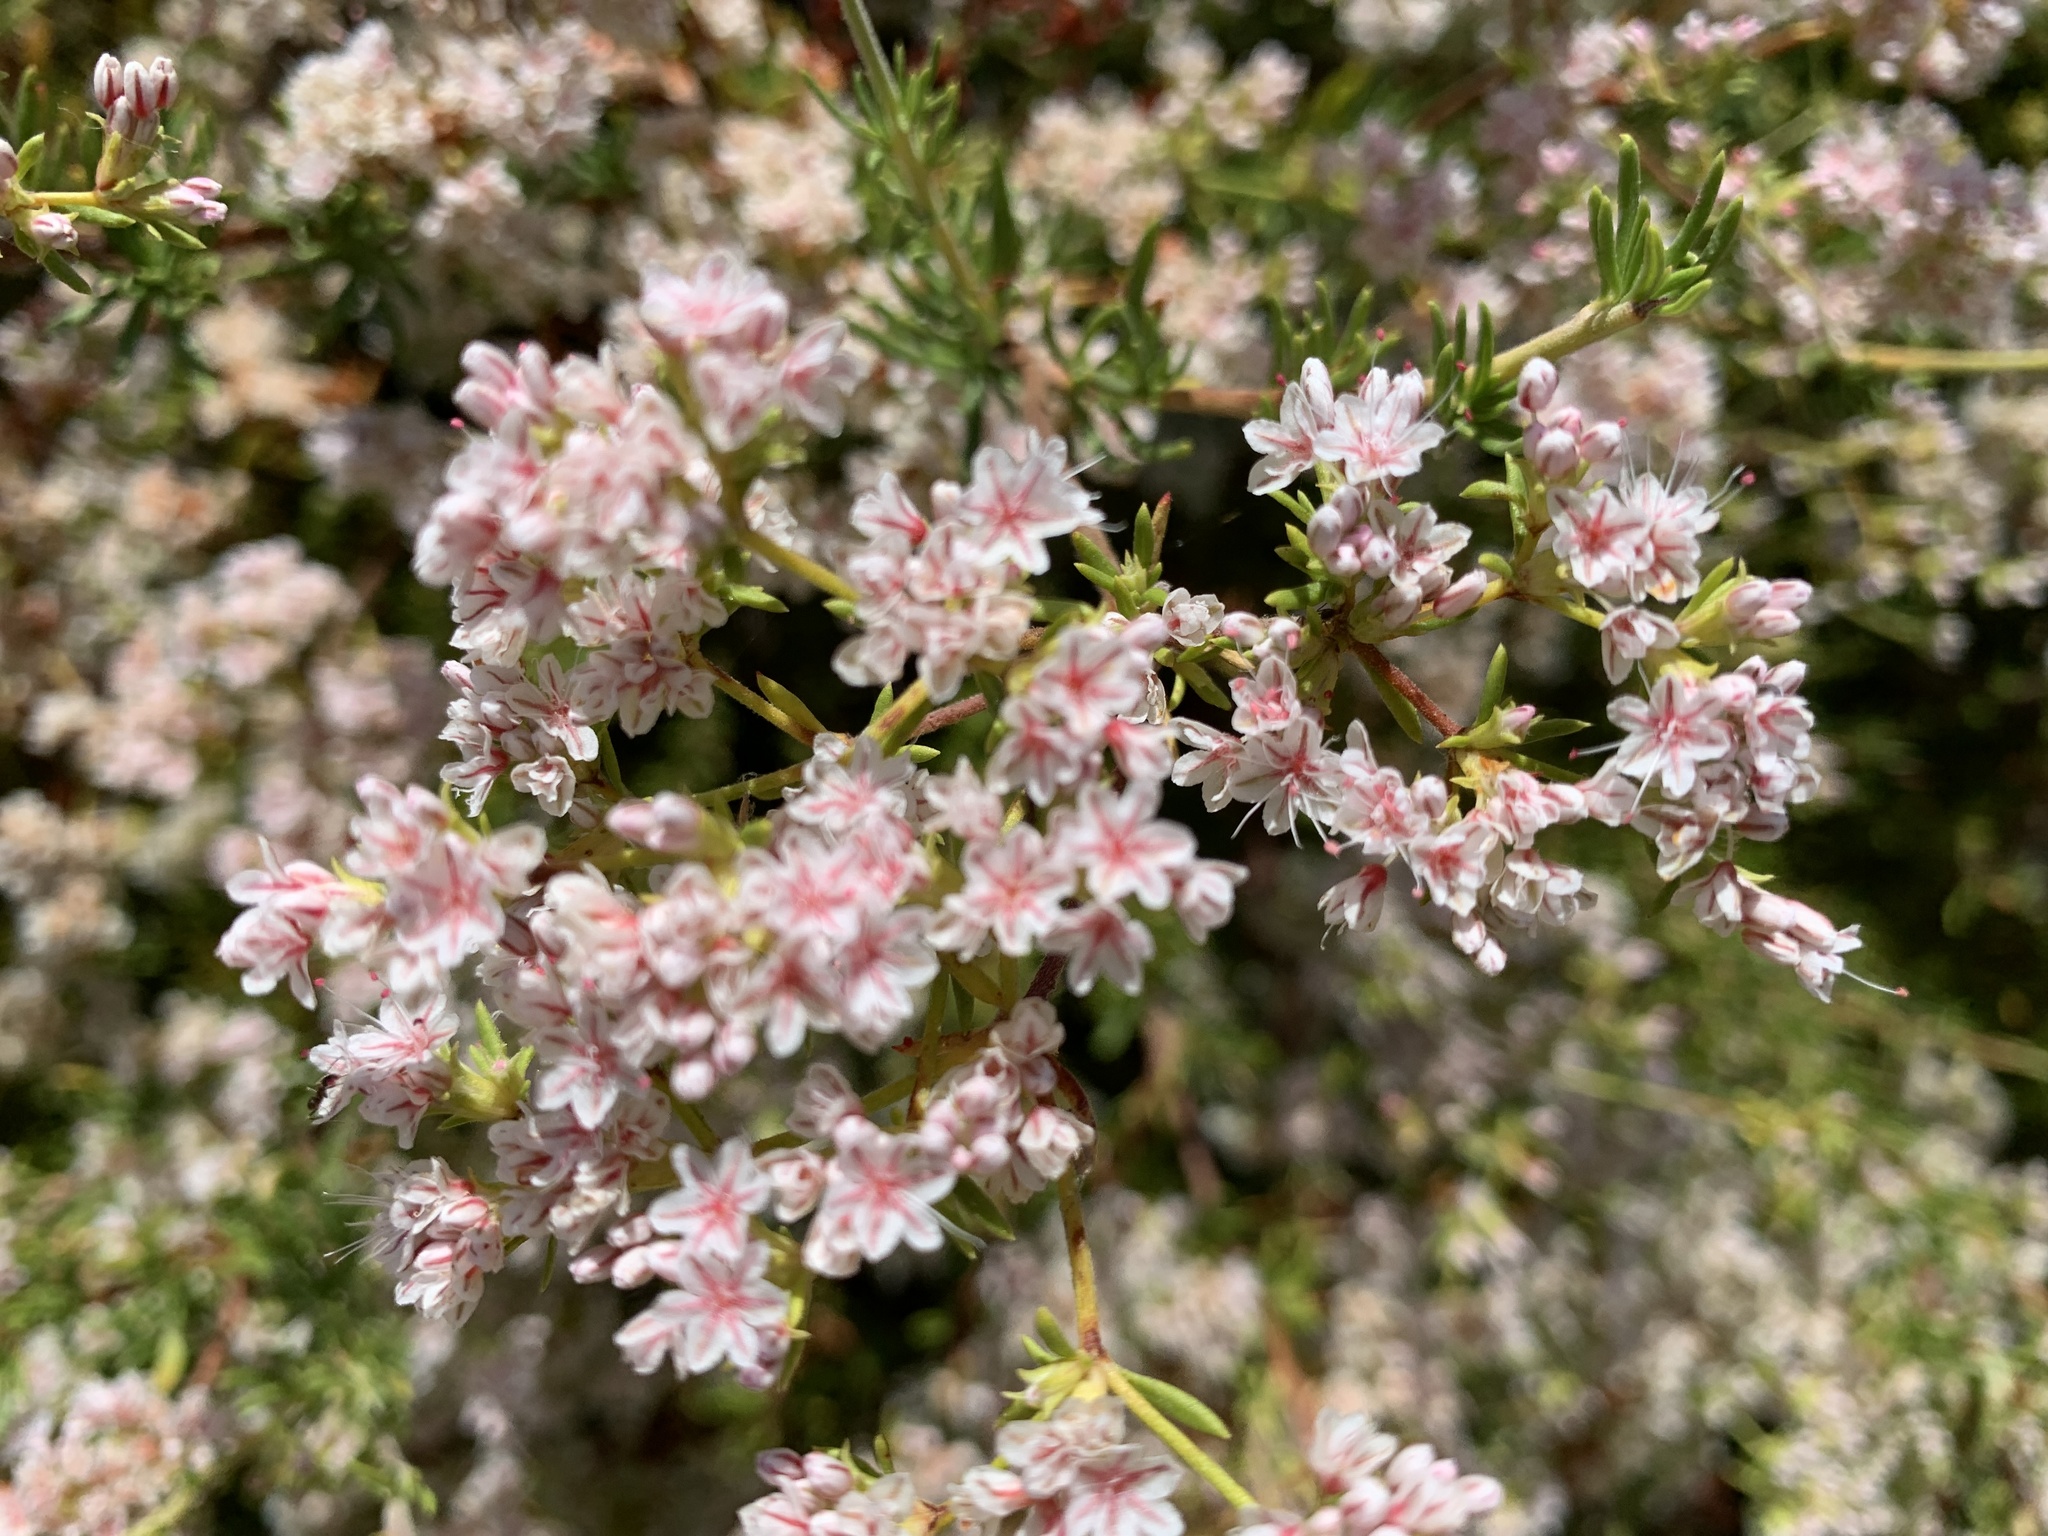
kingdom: Plantae
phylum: Tracheophyta
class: Magnoliopsida
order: Caryophyllales
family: Polygonaceae
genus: Eriogonum
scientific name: Eriogonum fasciculatum
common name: California wild buckwheat
